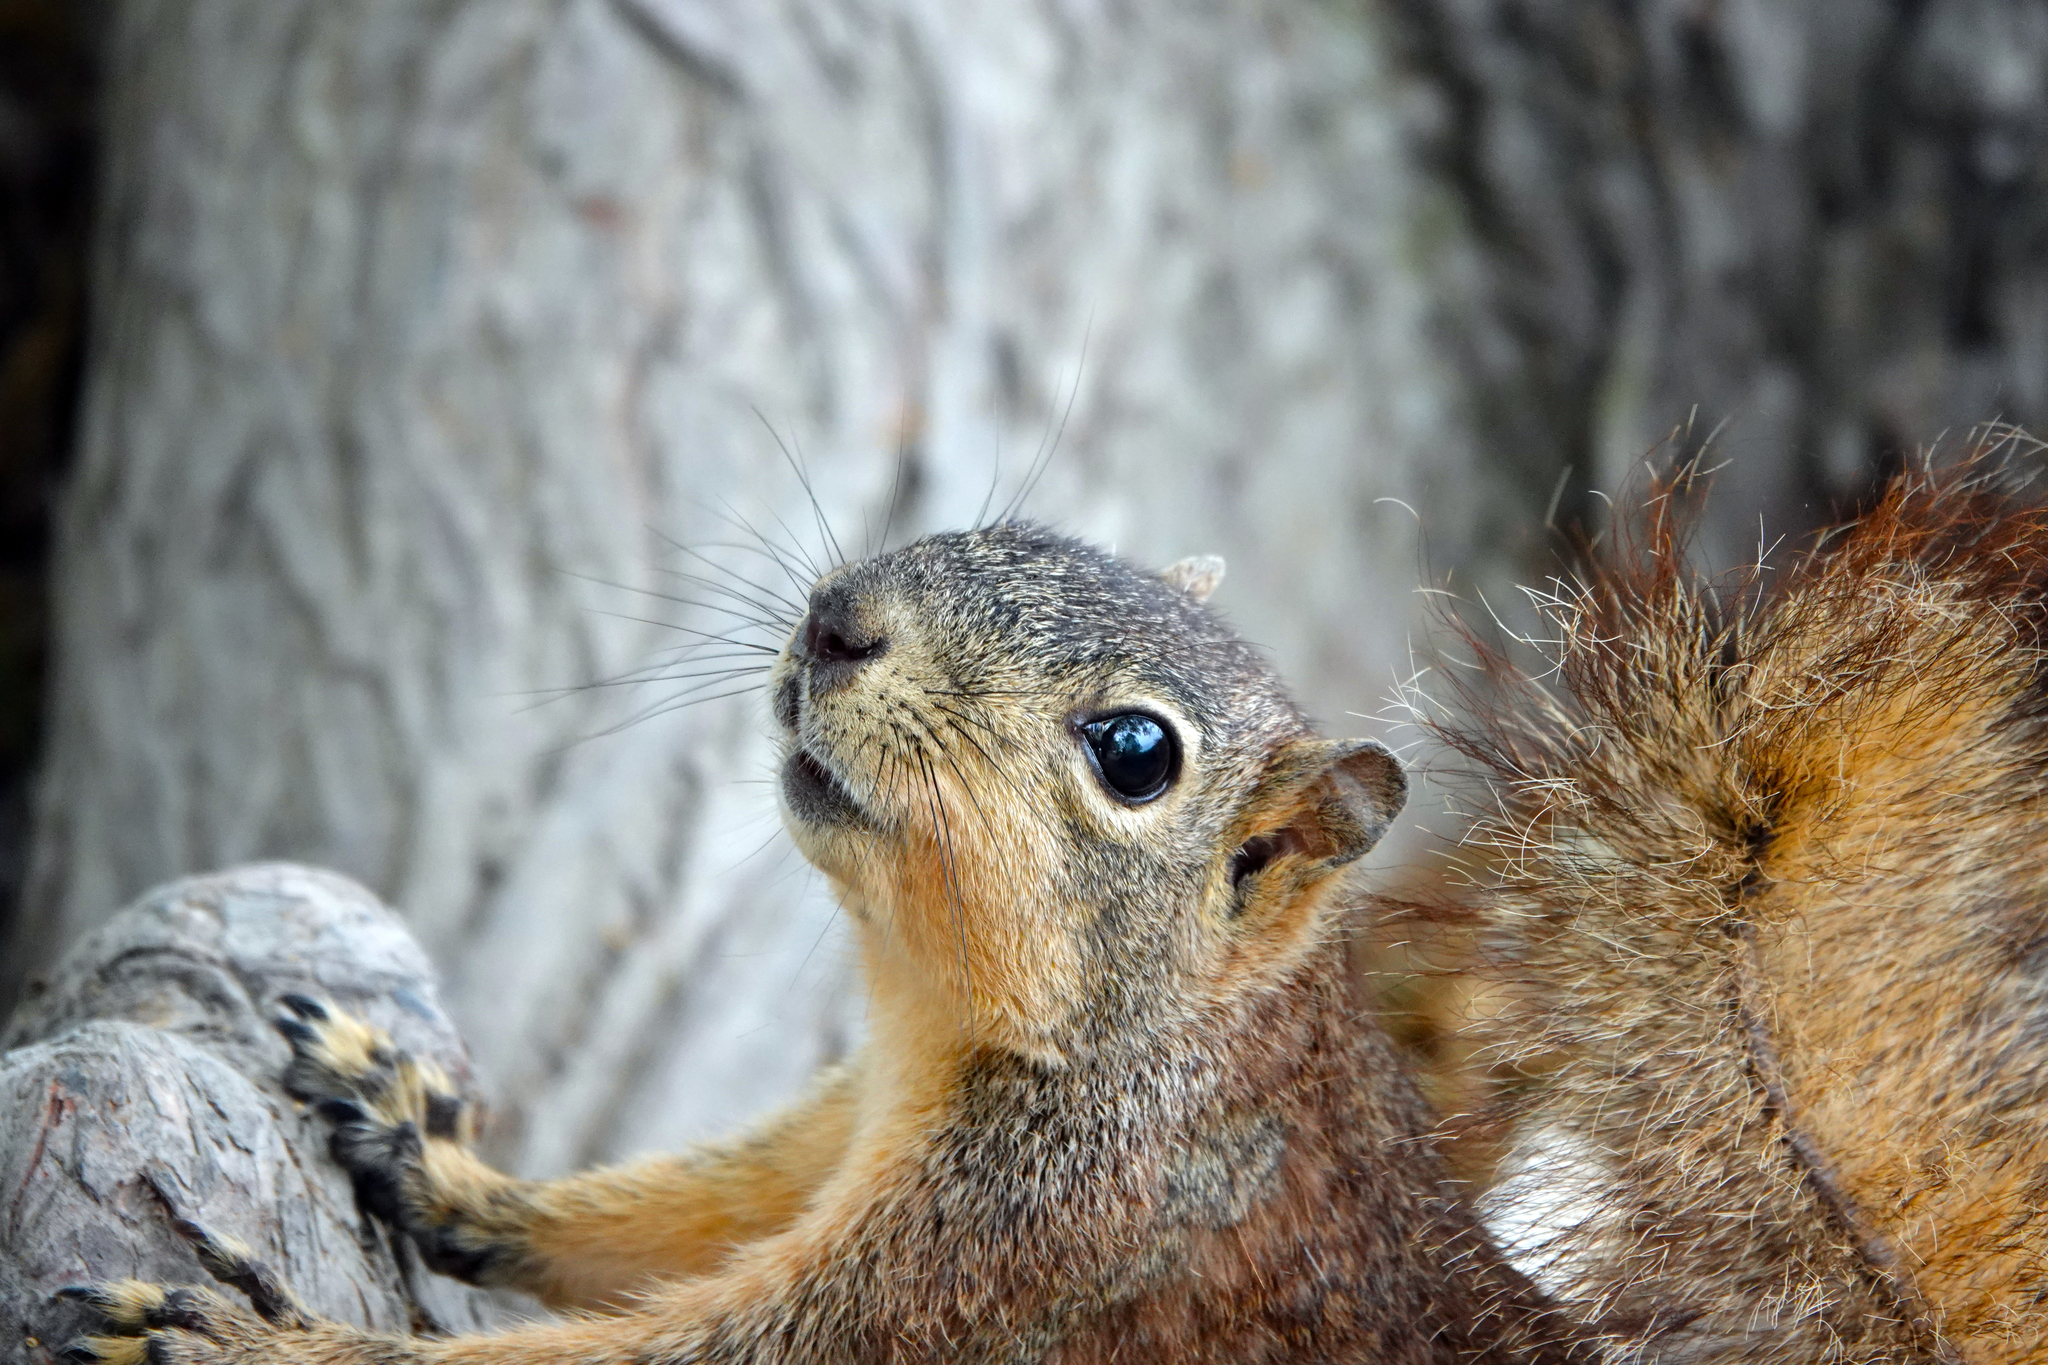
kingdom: Animalia
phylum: Chordata
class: Mammalia
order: Rodentia
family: Sciuridae
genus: Sciurus
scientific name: Sciurus niger
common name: Fox squirrel
